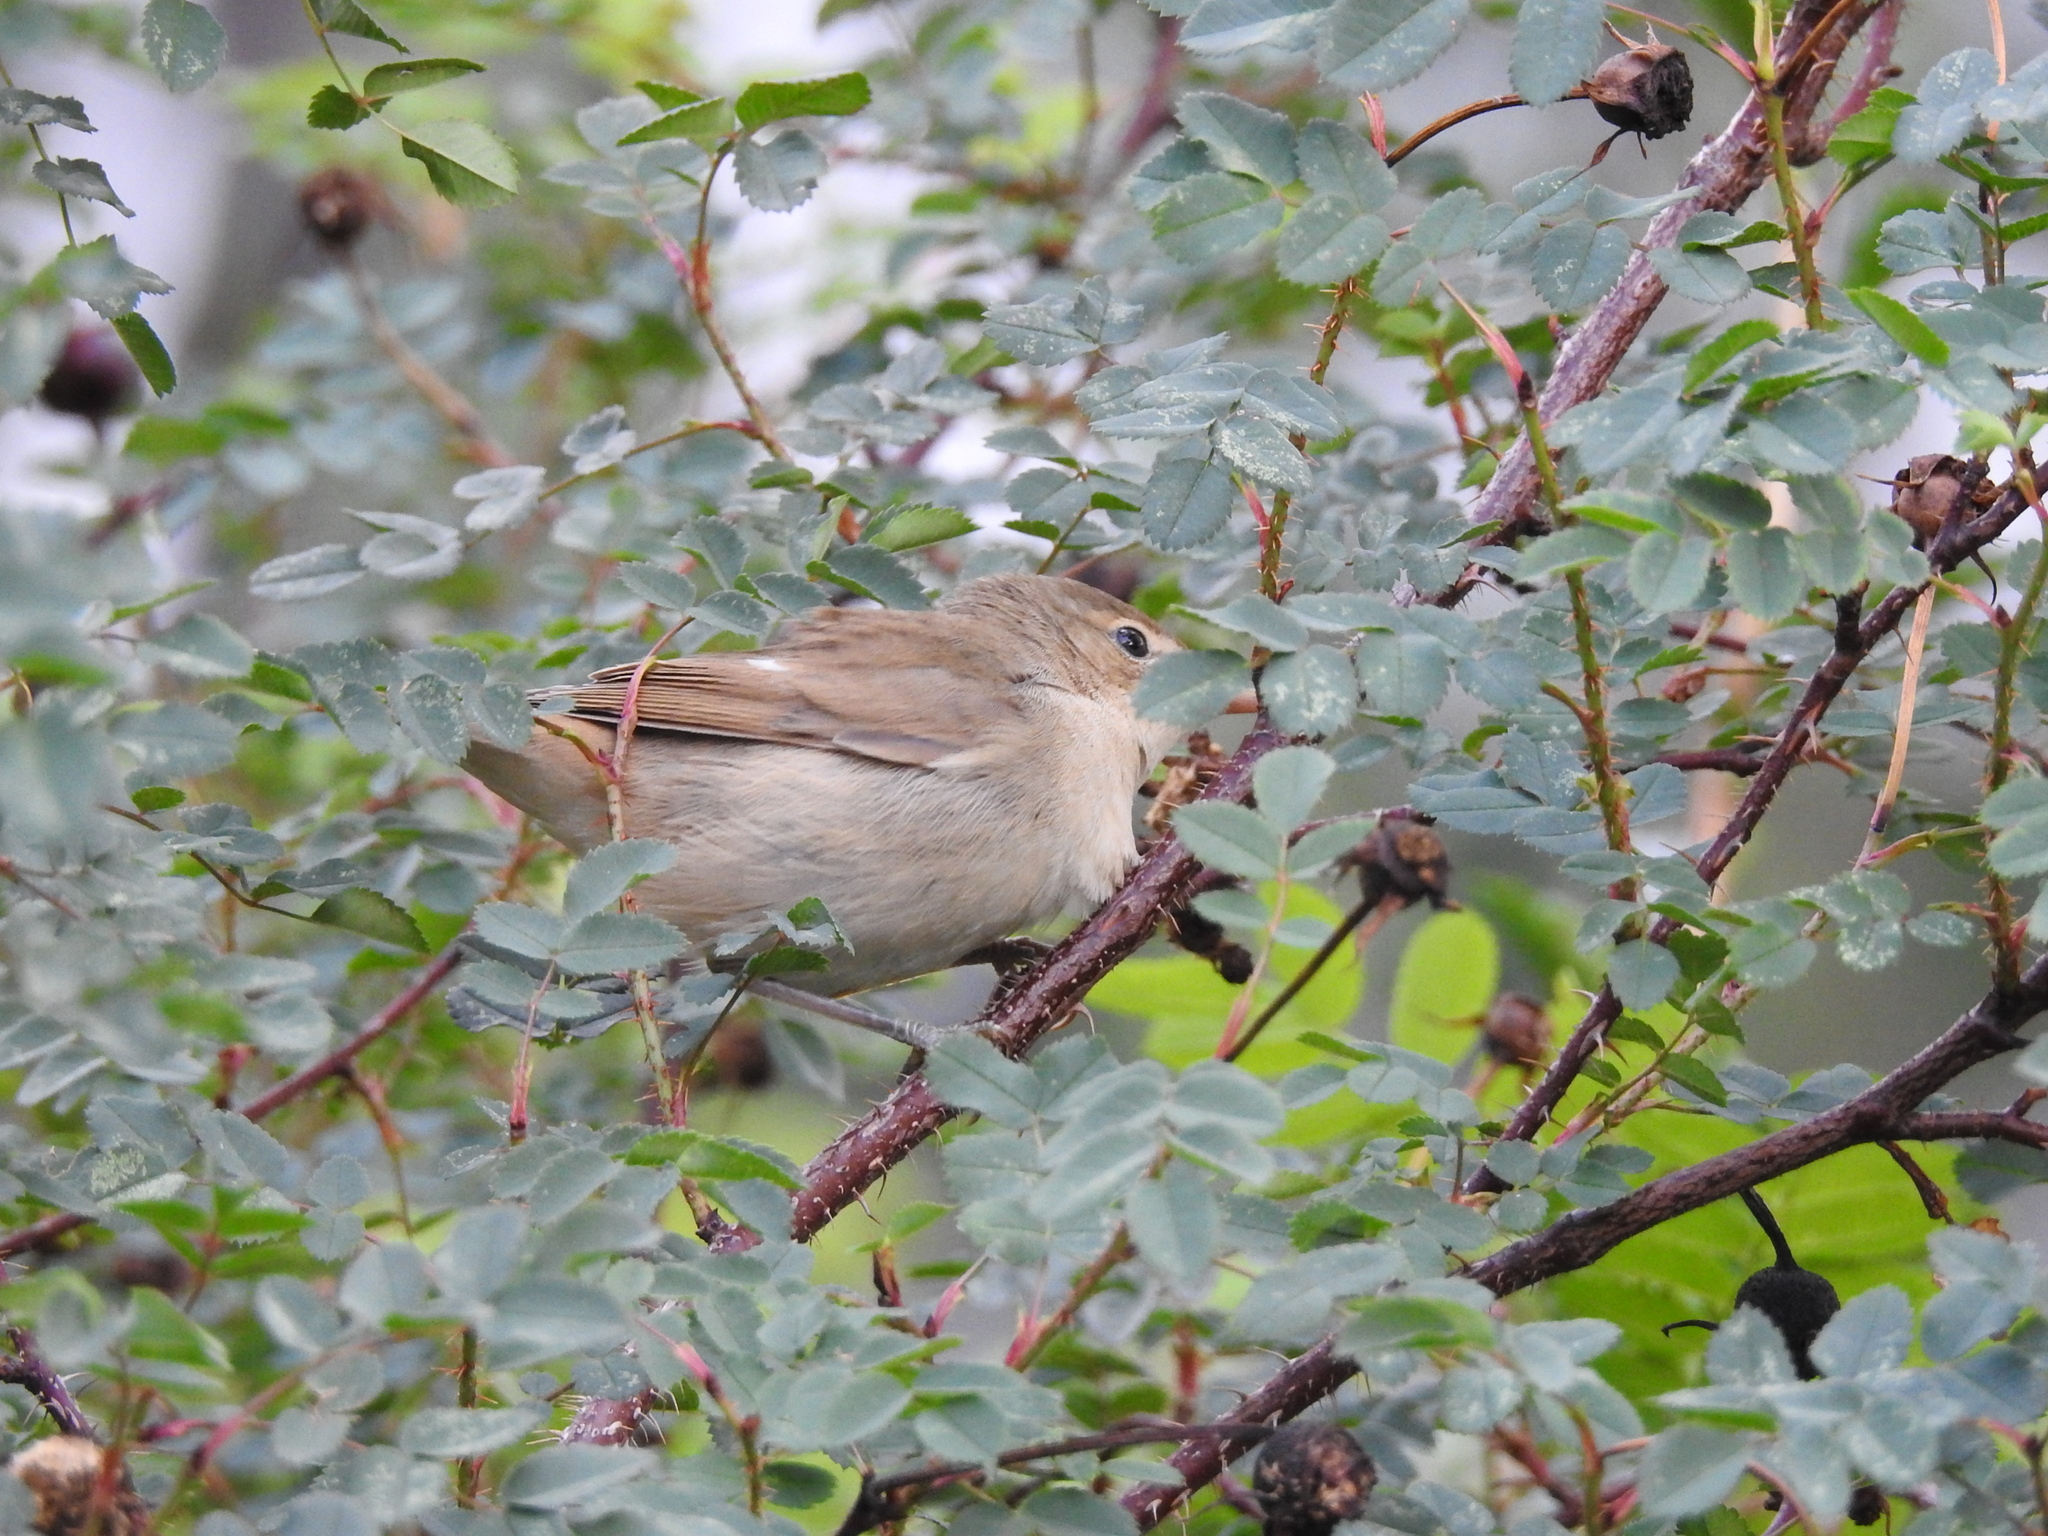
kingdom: Animalia
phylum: Chordata
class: Aves
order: Passeriformes
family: Sylviidae
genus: Sylvia
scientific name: Sylvia borin
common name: Garden warbler
